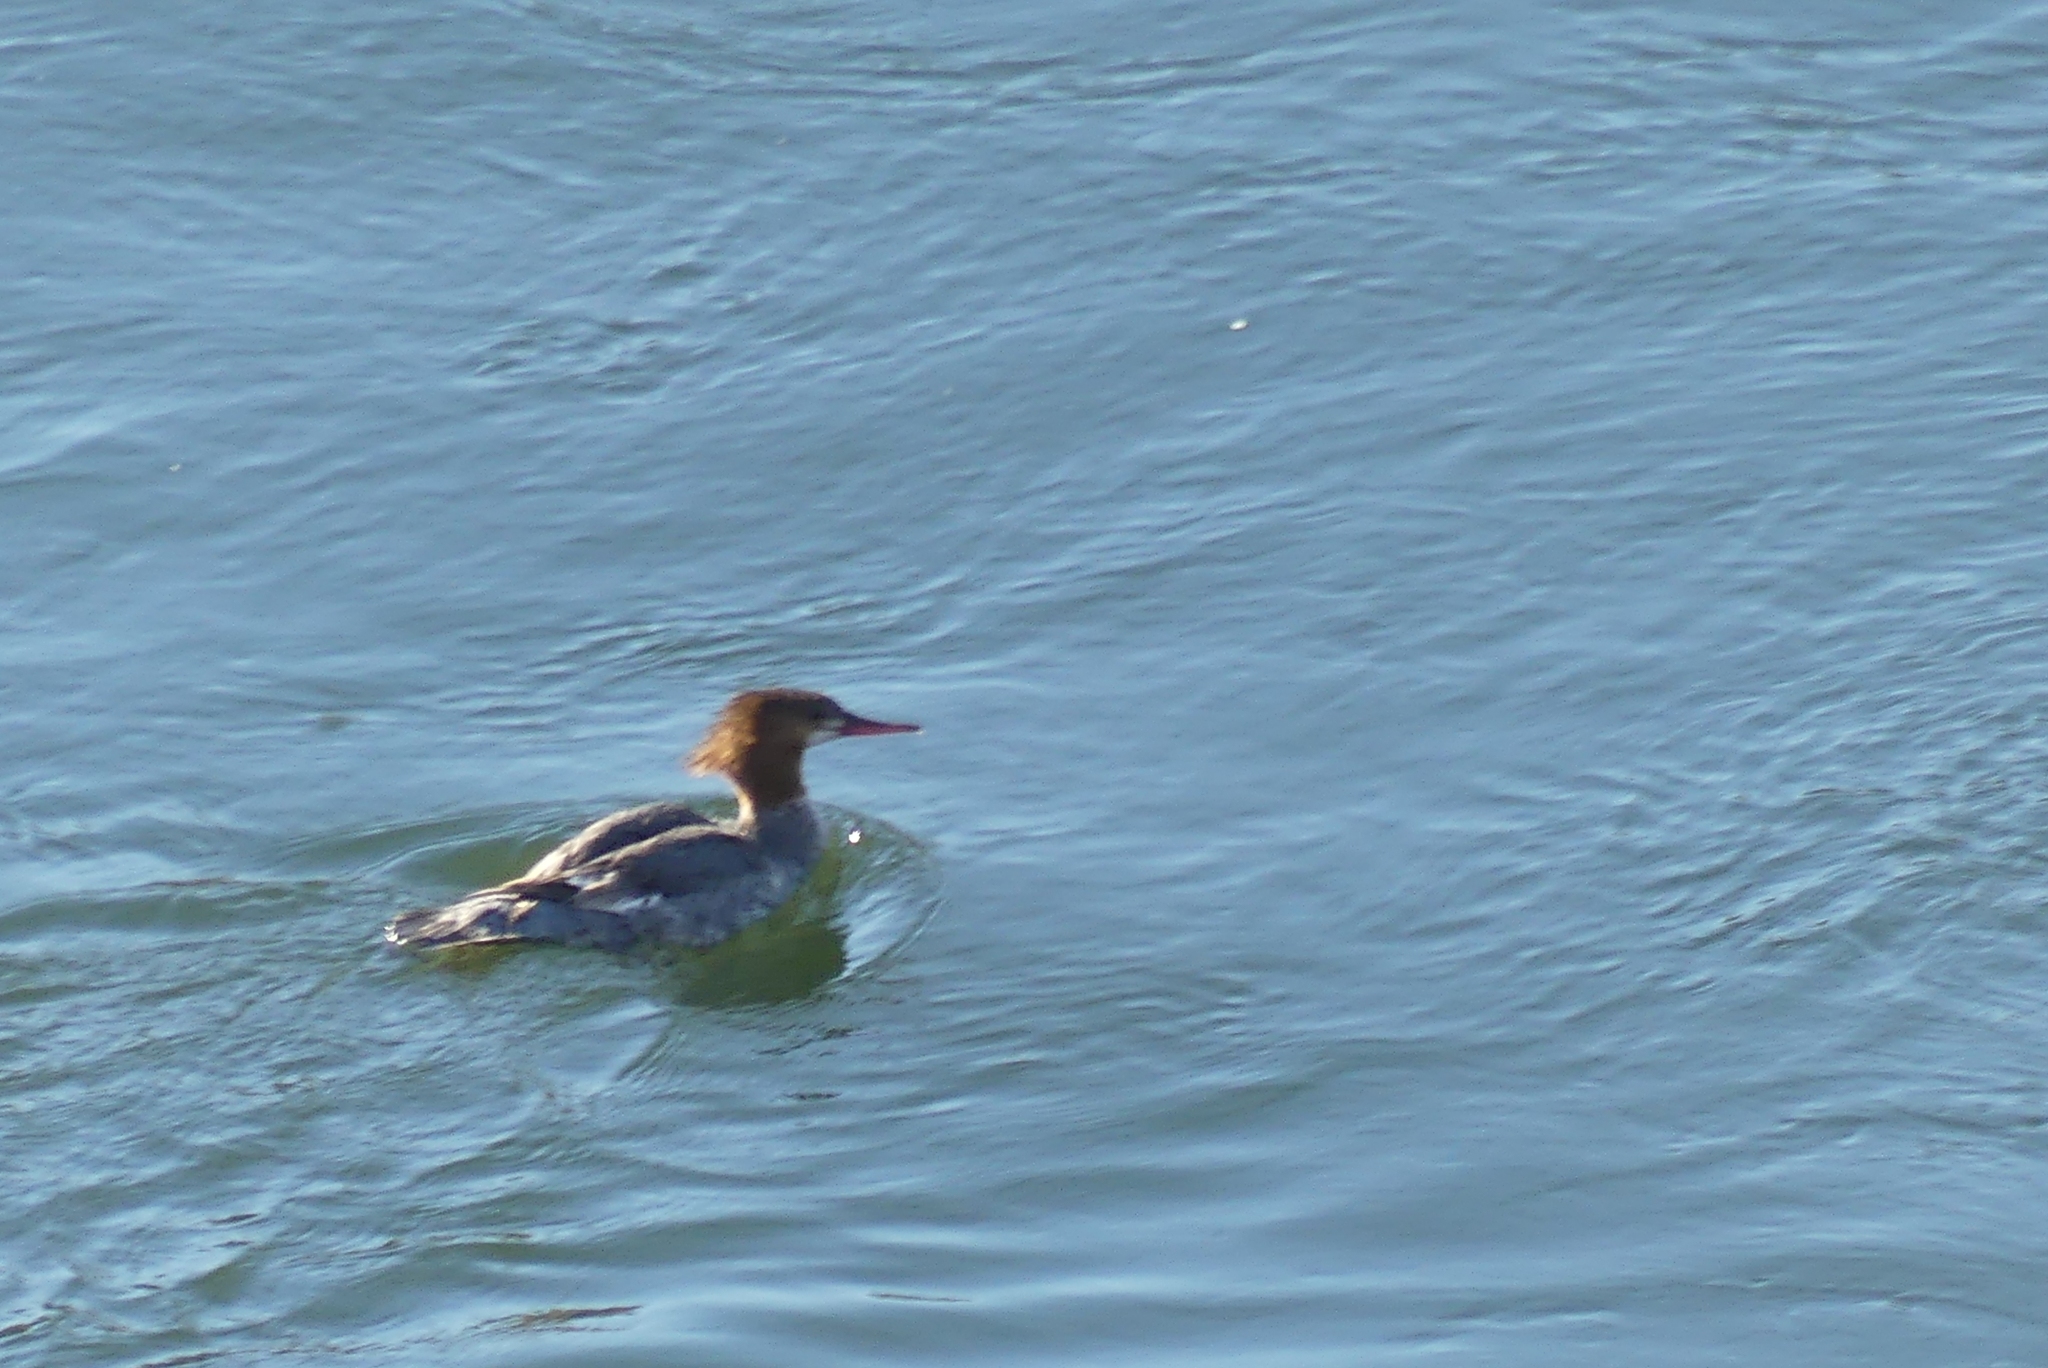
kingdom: Animalia
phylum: Chordata
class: Aves
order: Anseriformes
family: Anatidae
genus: Mergus
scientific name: Mergus merganser
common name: Common merganser
